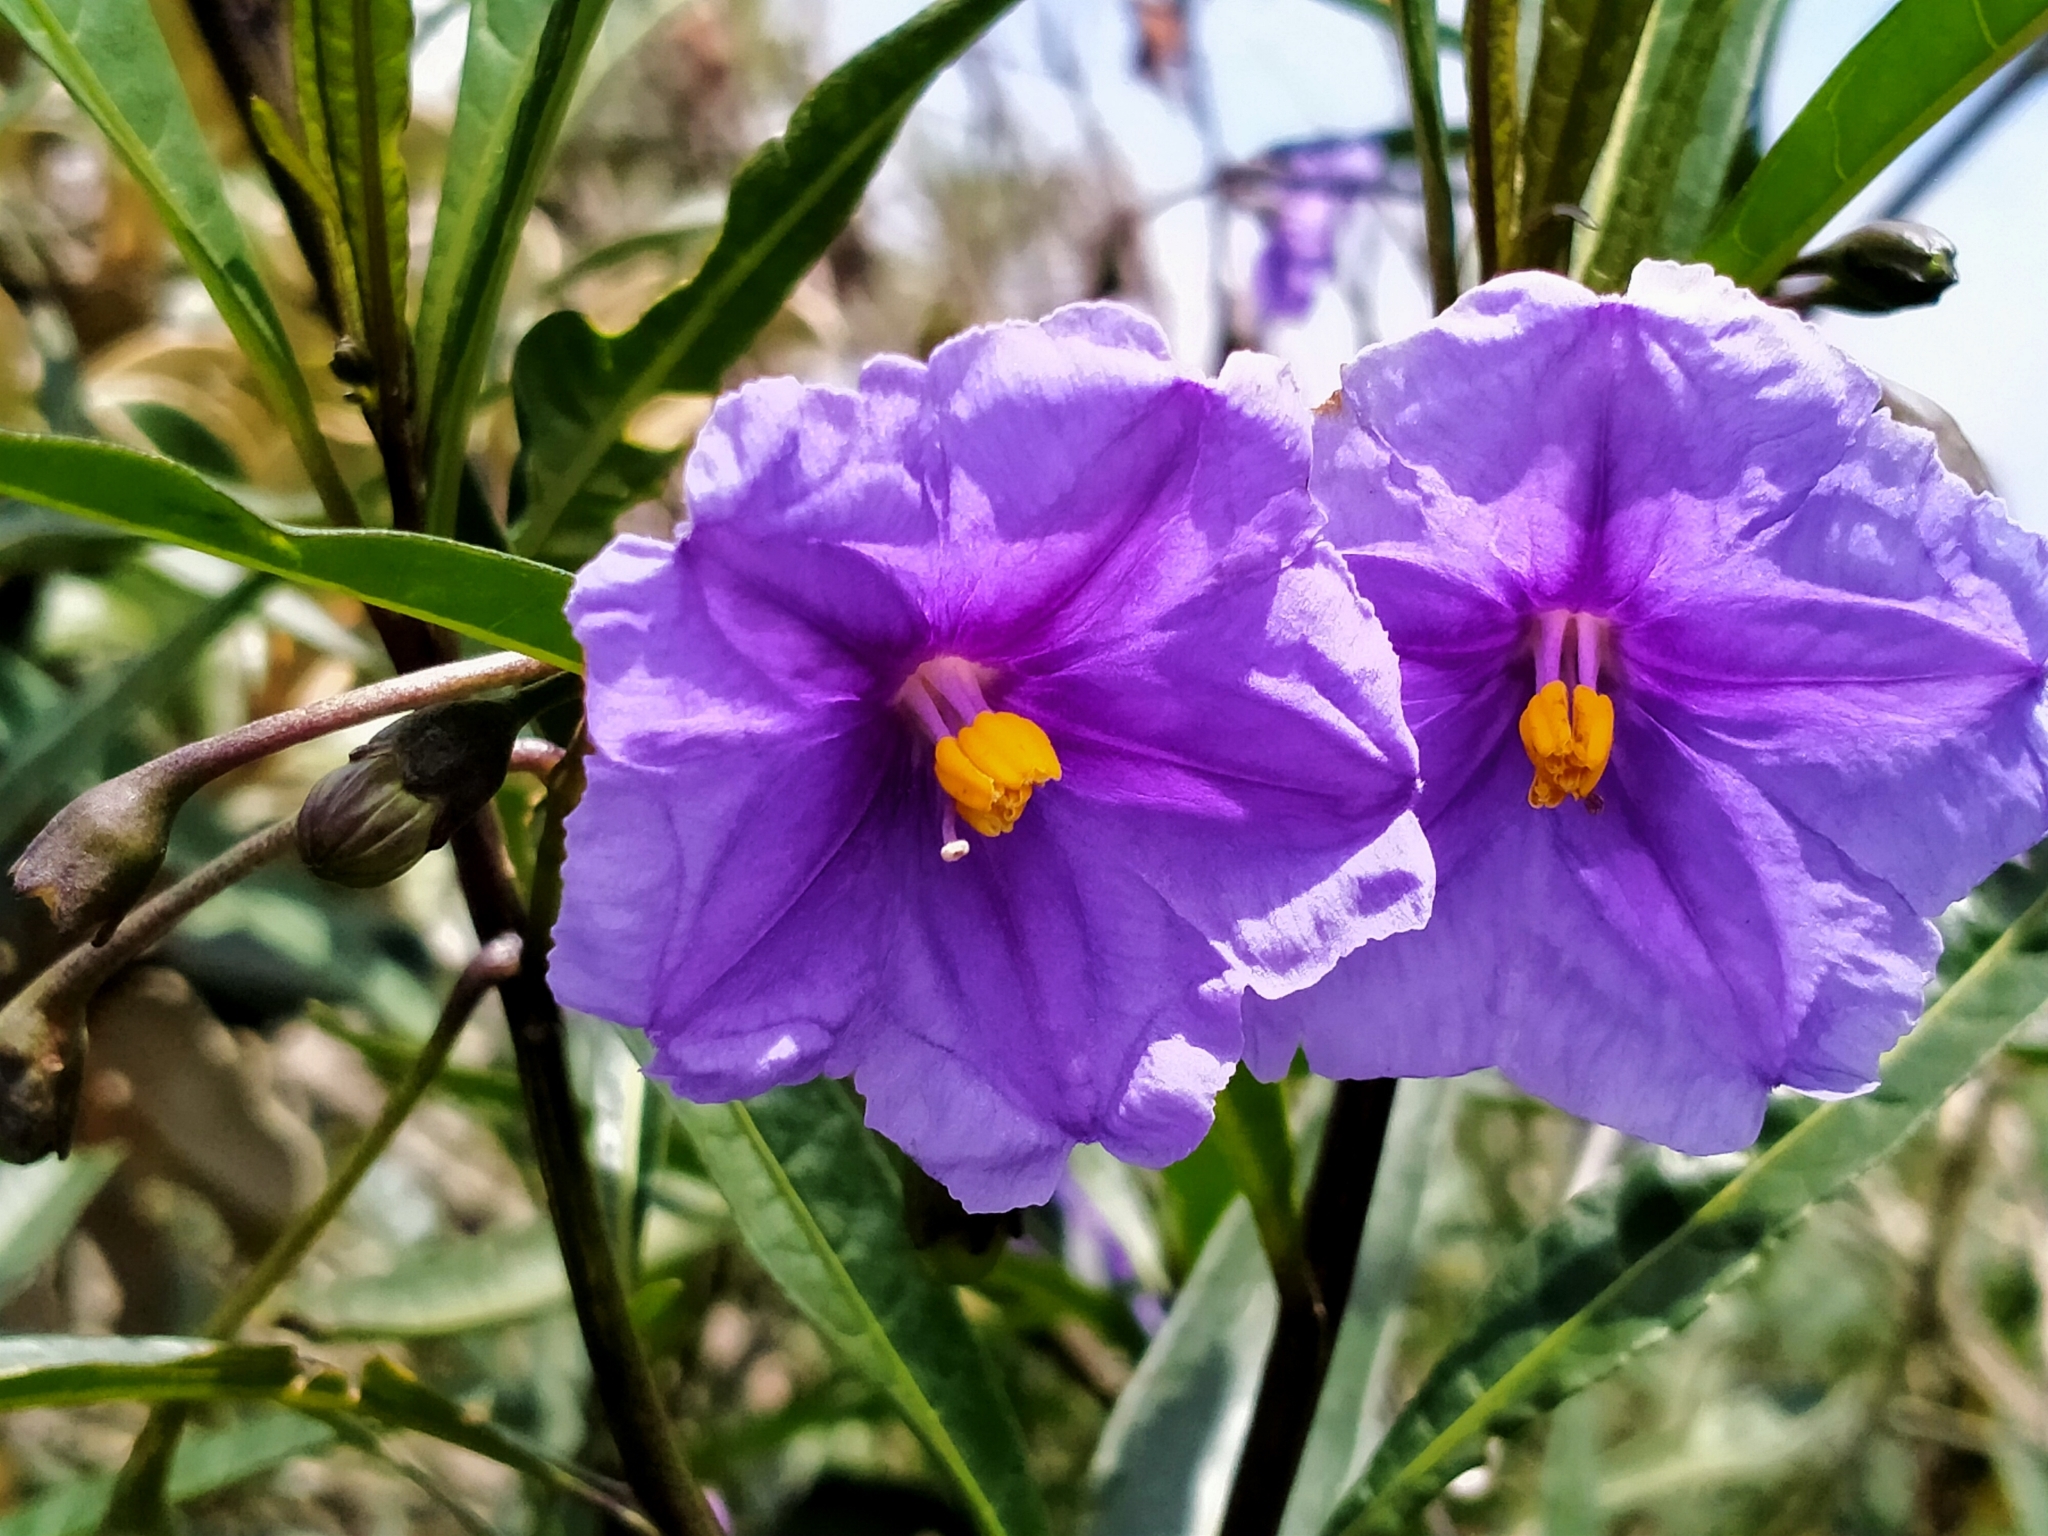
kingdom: Plantae
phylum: Tracheophyta
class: Magnoliopsida
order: Solanales
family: Solanaceae
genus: Solanum
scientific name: Solanum laciniatum
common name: Kangaroo-apple
